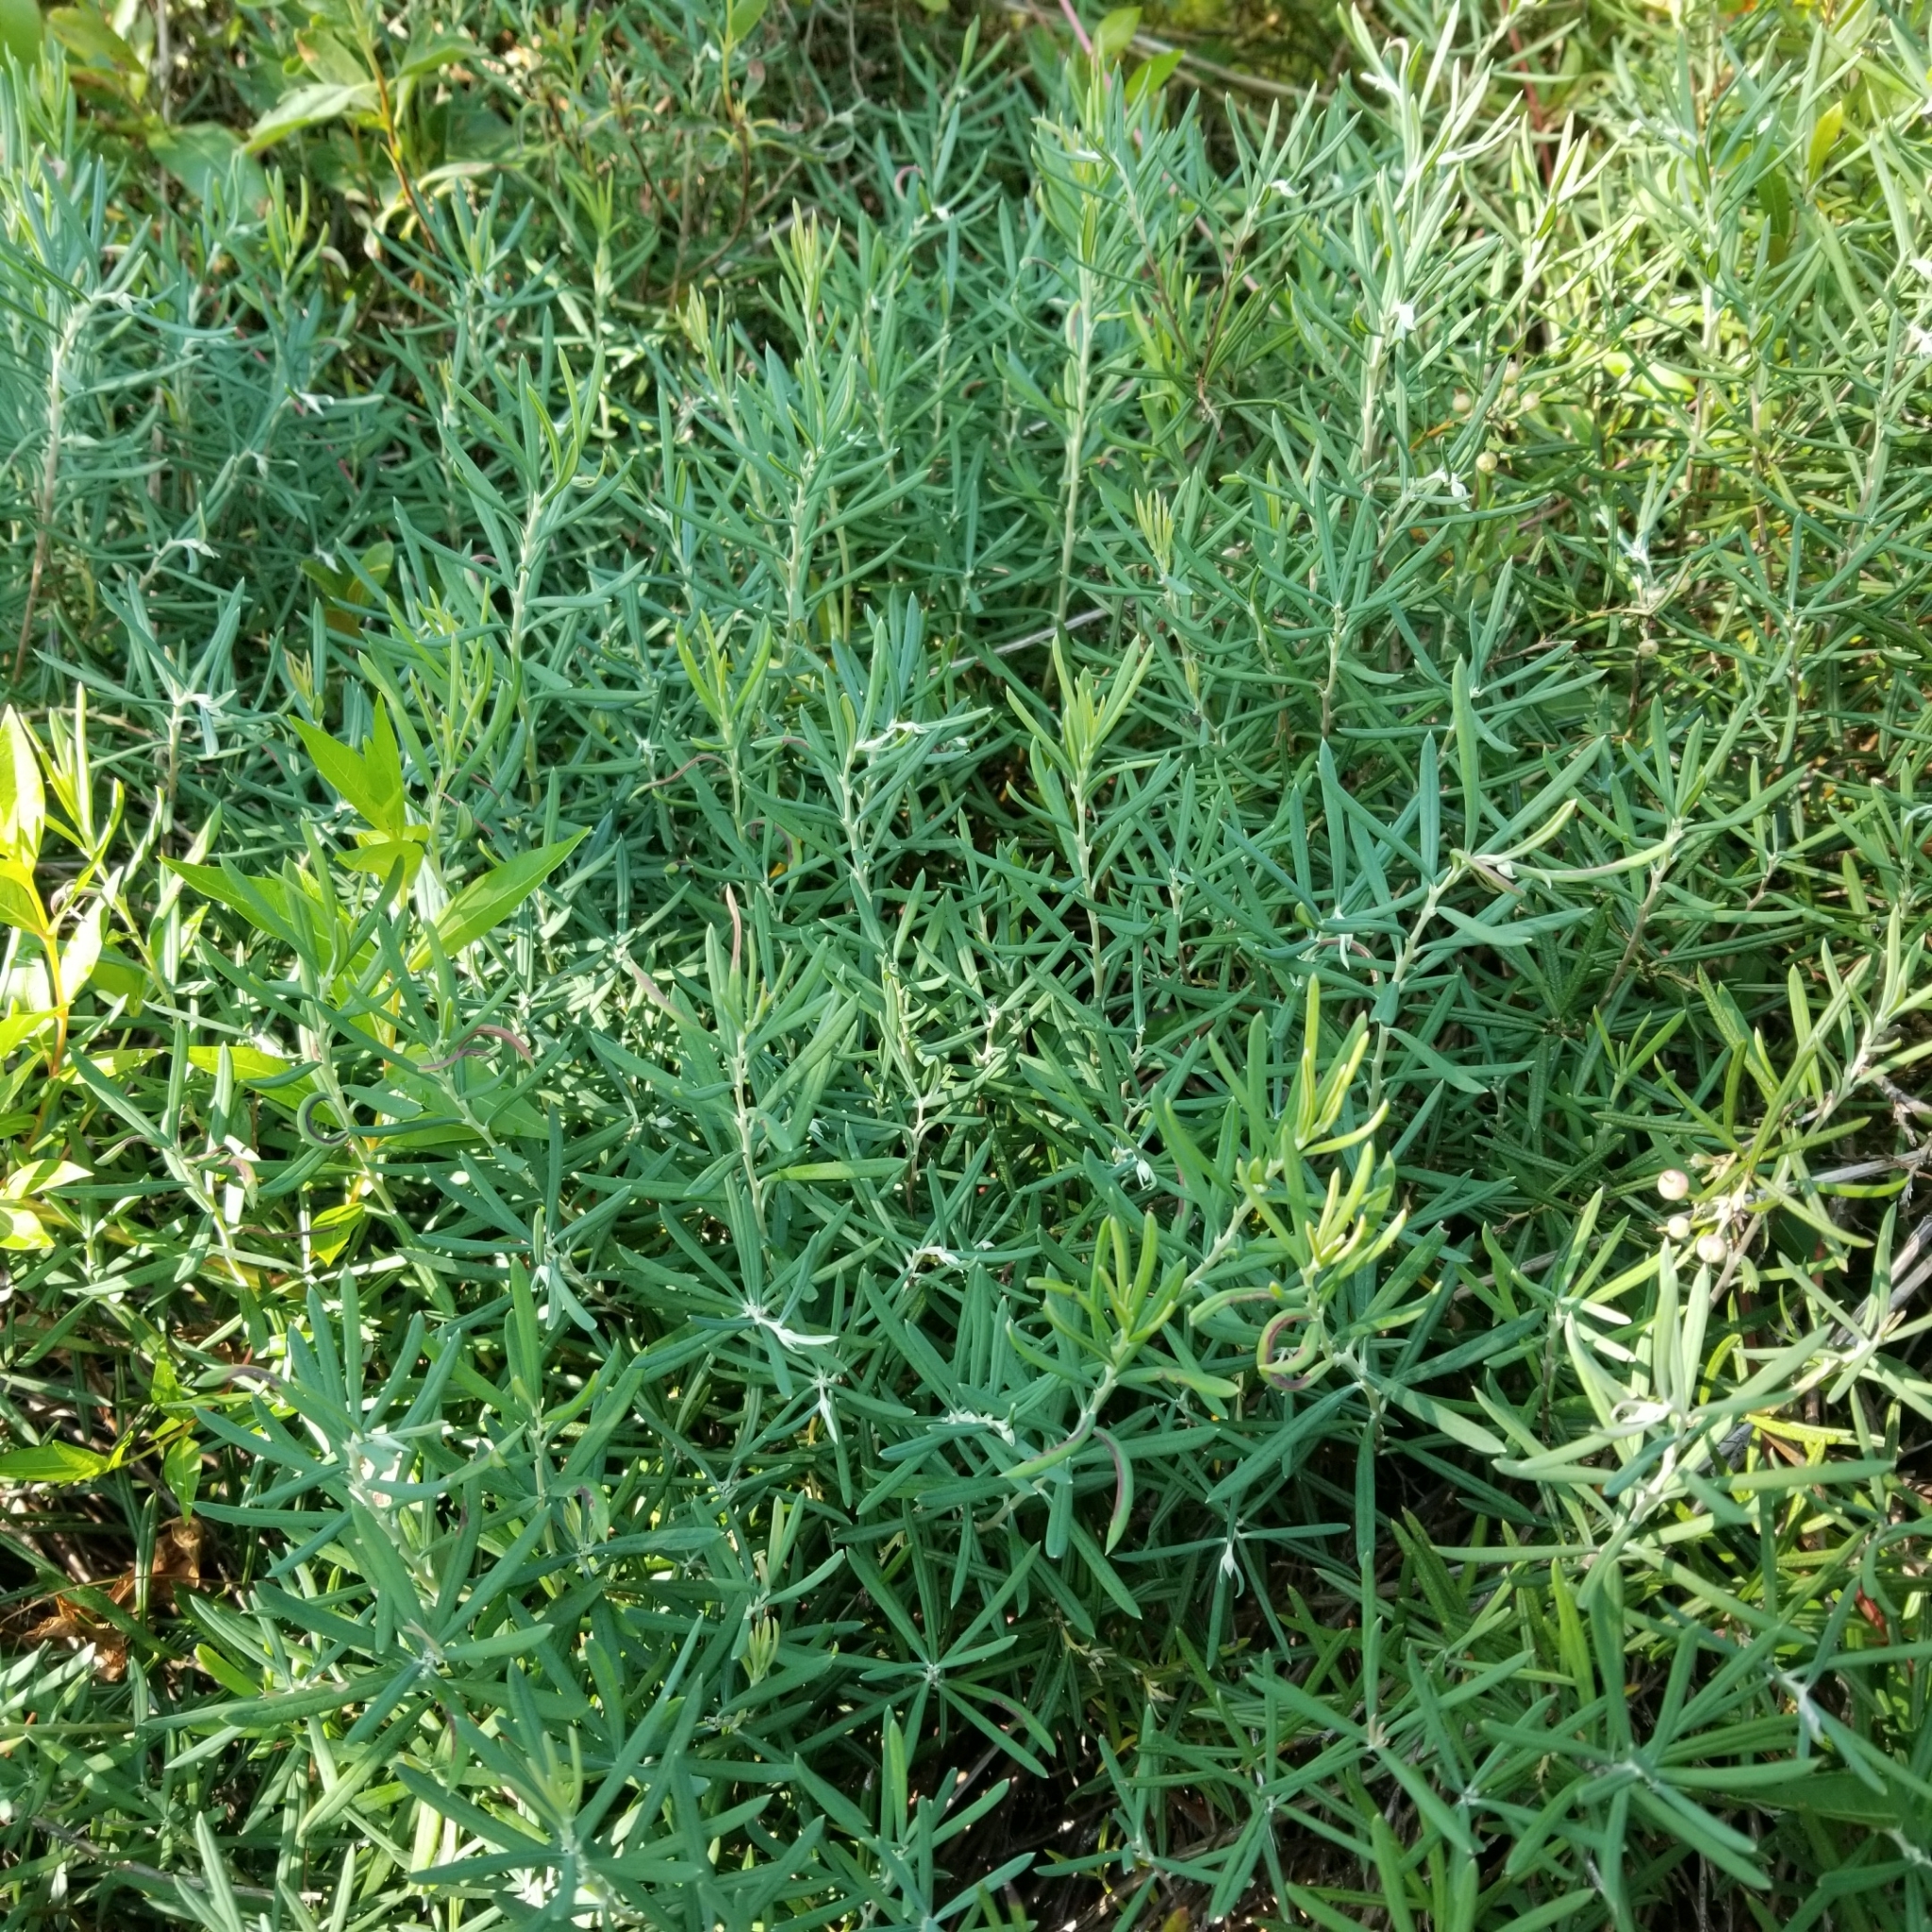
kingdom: Plantae
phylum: Tracheophyta
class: Magnoliopsida
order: Ericales
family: Ericaceae
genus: Andromeda
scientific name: Andromeda polifolia
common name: Bog-rosemary
